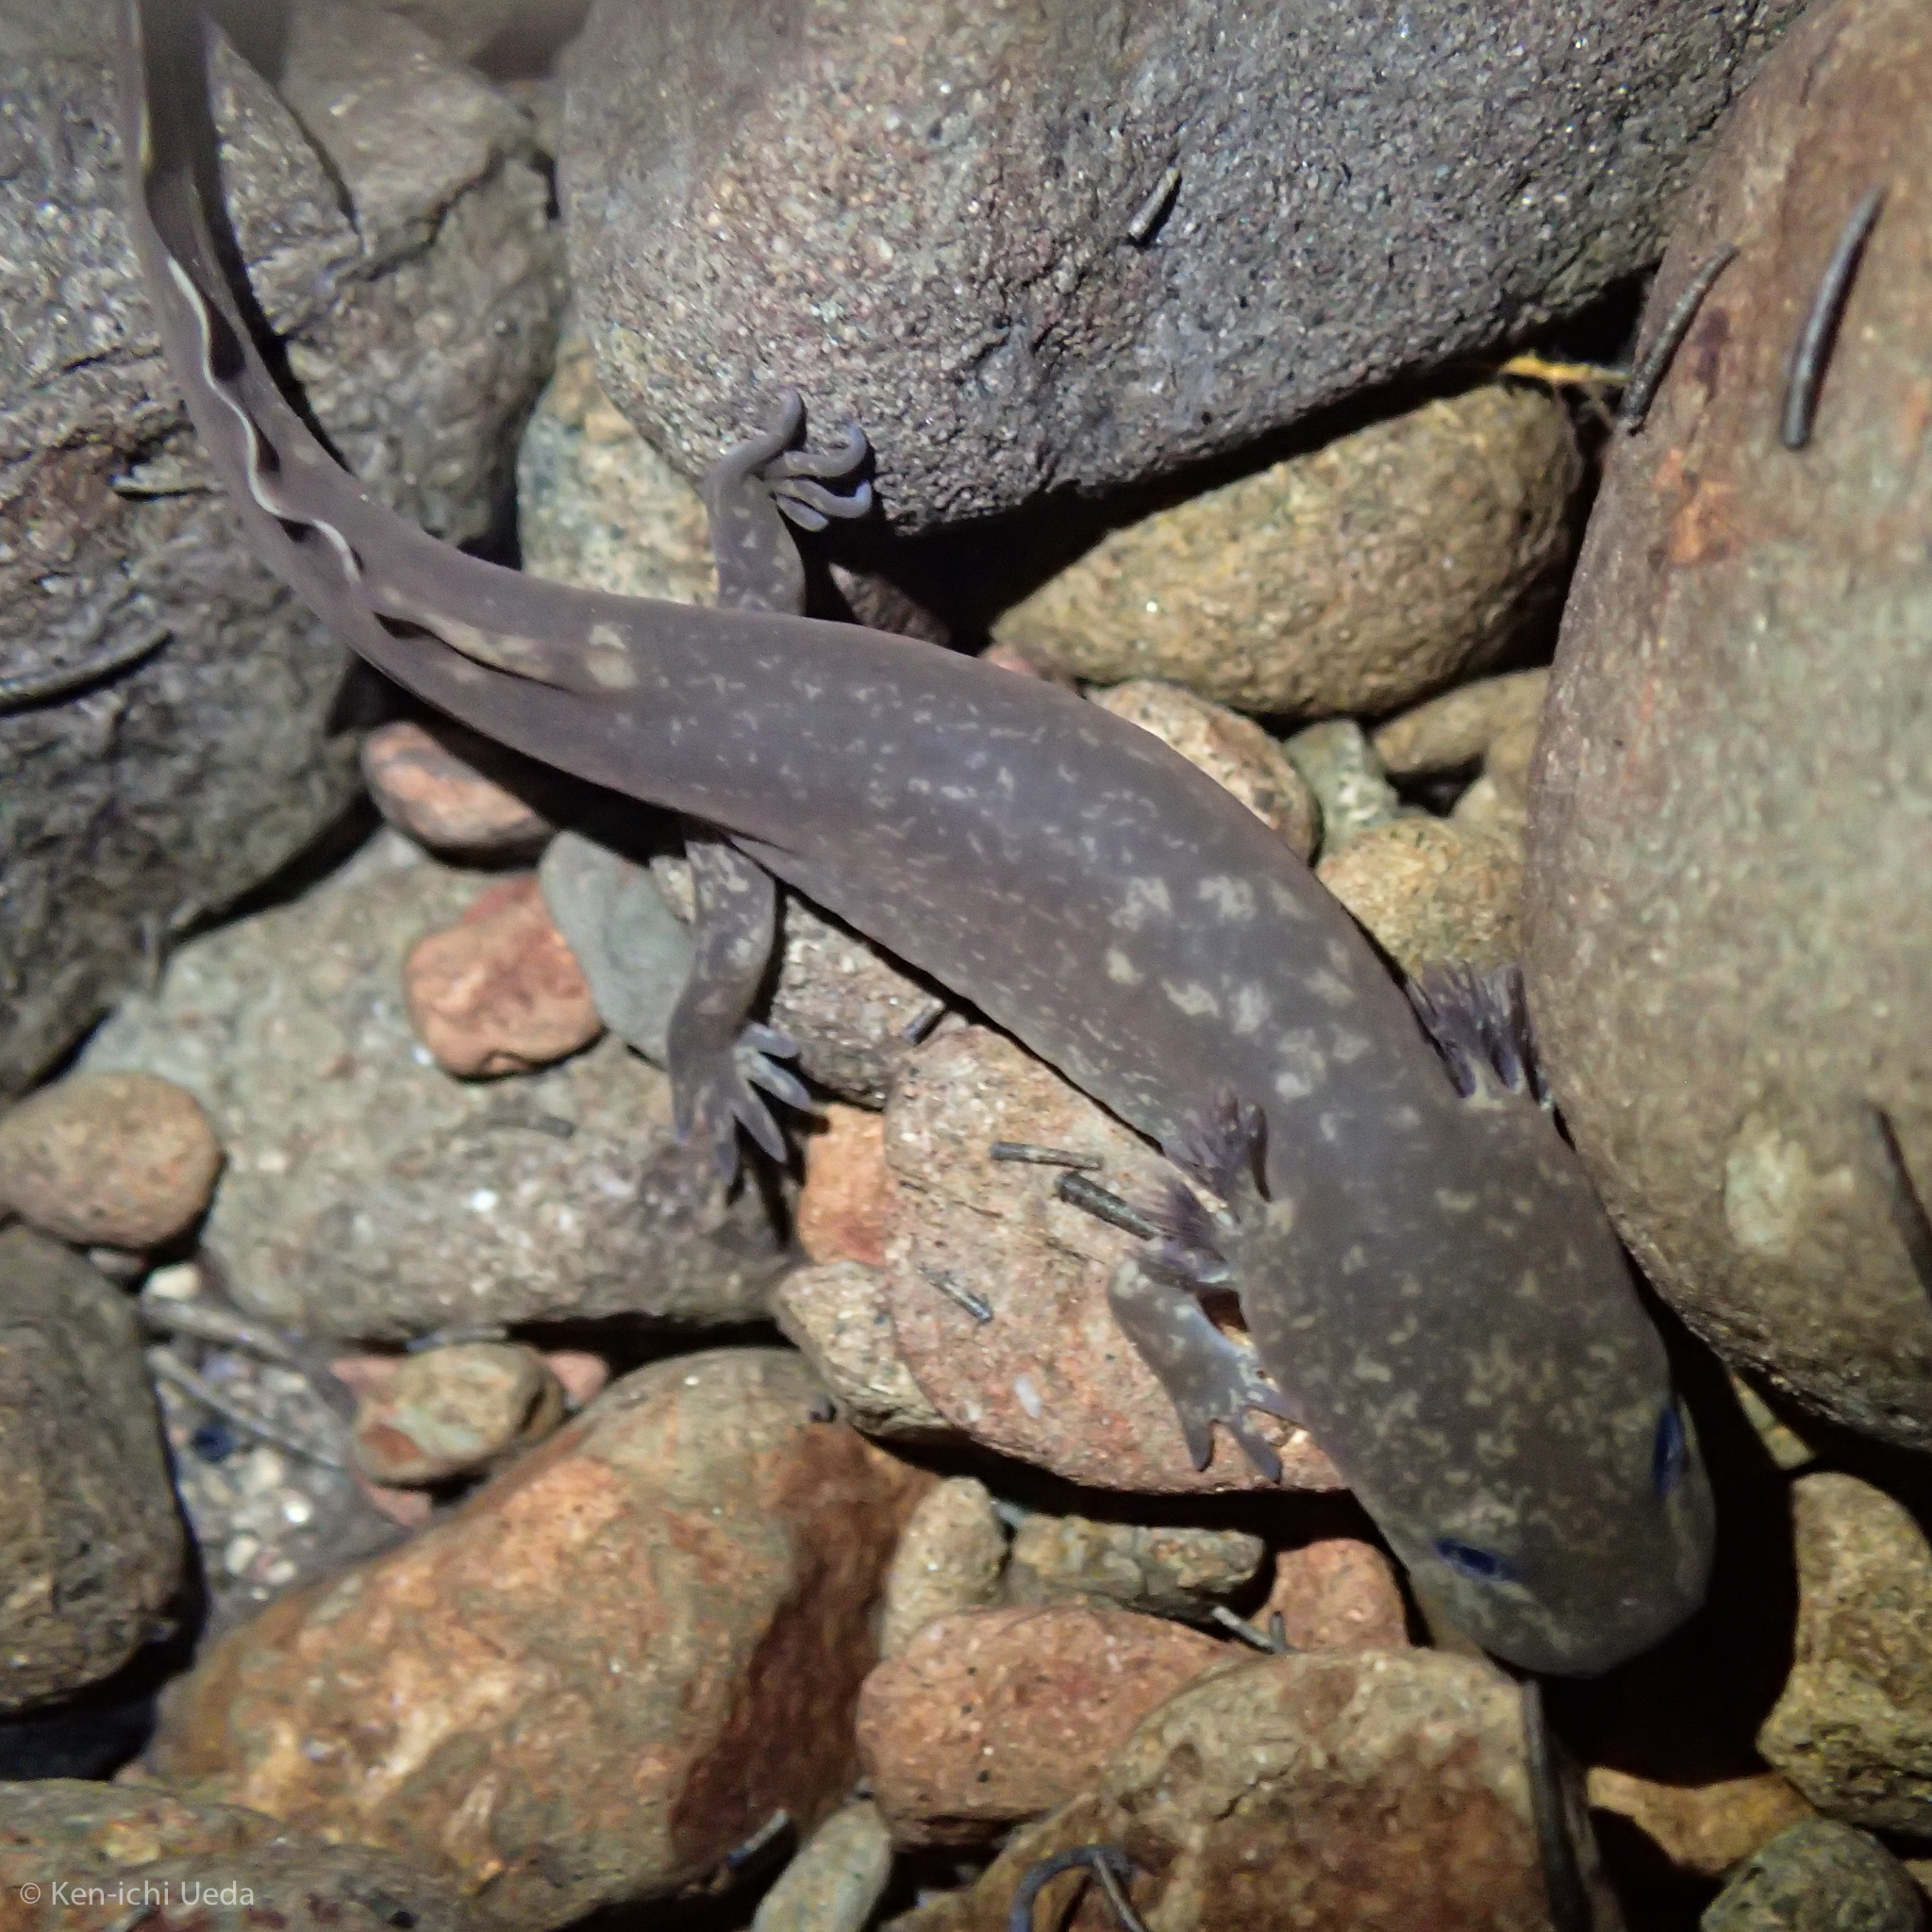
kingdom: Animalia
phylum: Chordata
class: Amphibia
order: Caudata
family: Ambystomatidae
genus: Dicamptodon
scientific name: Dicamptodon tenebrosus
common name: Coastal giant salamander
